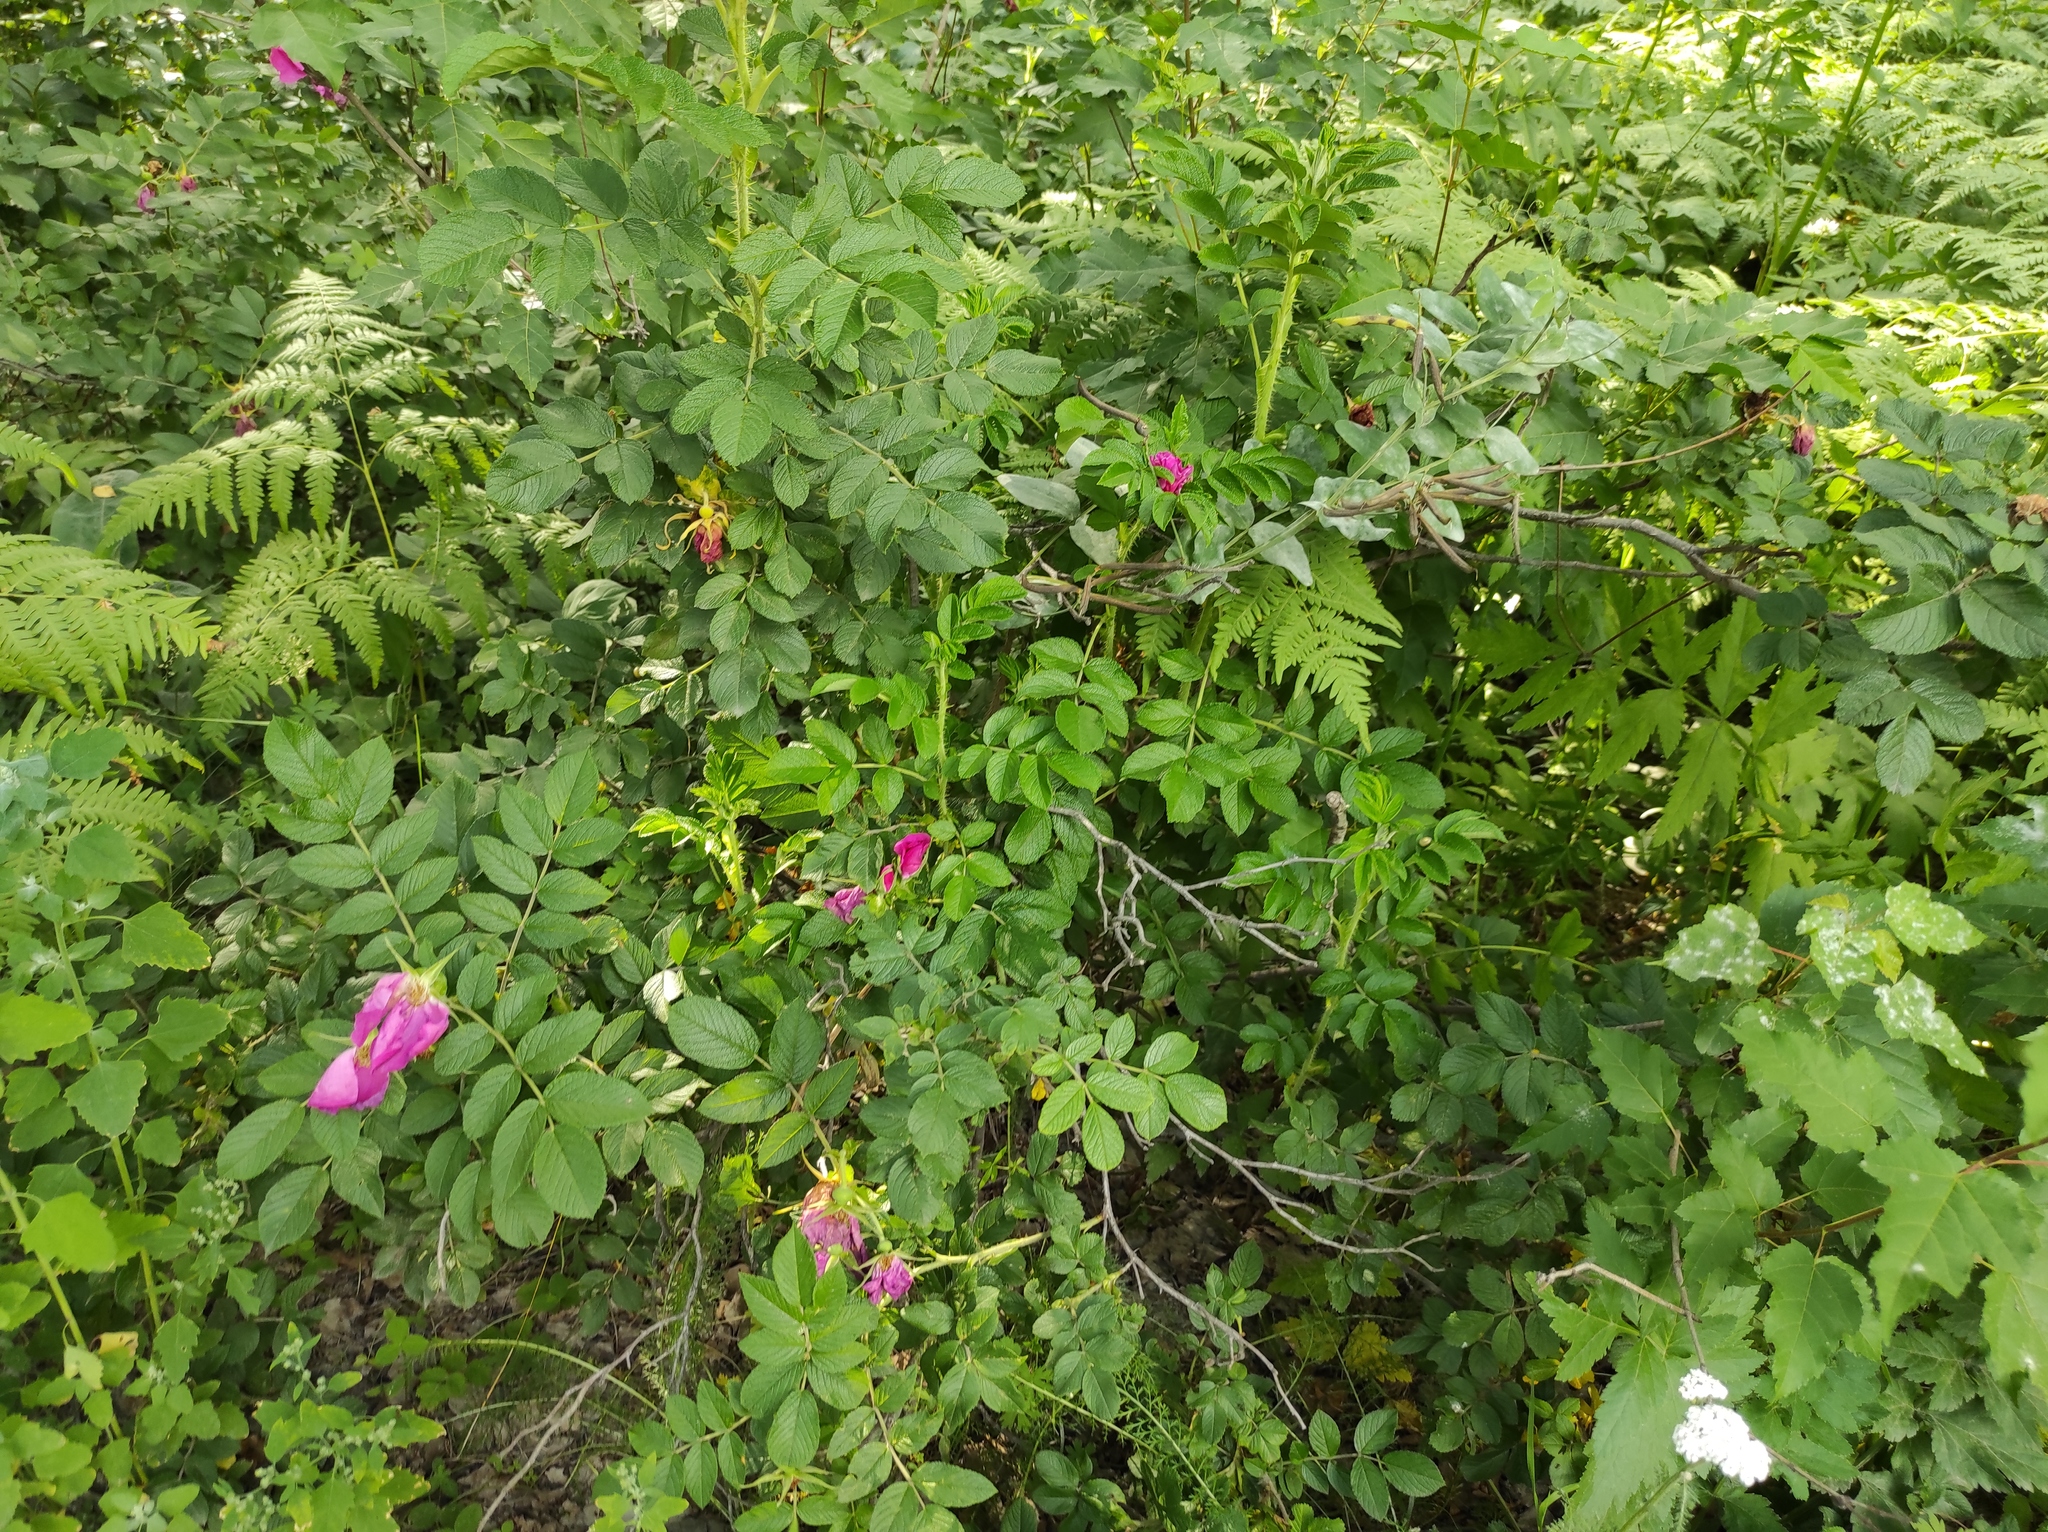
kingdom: Plantae
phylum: Tracheophyta
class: Magnoliopsida
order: Rosales
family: Rosaceae
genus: Rosa
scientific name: Rosa rugosa
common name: Japanese rose
